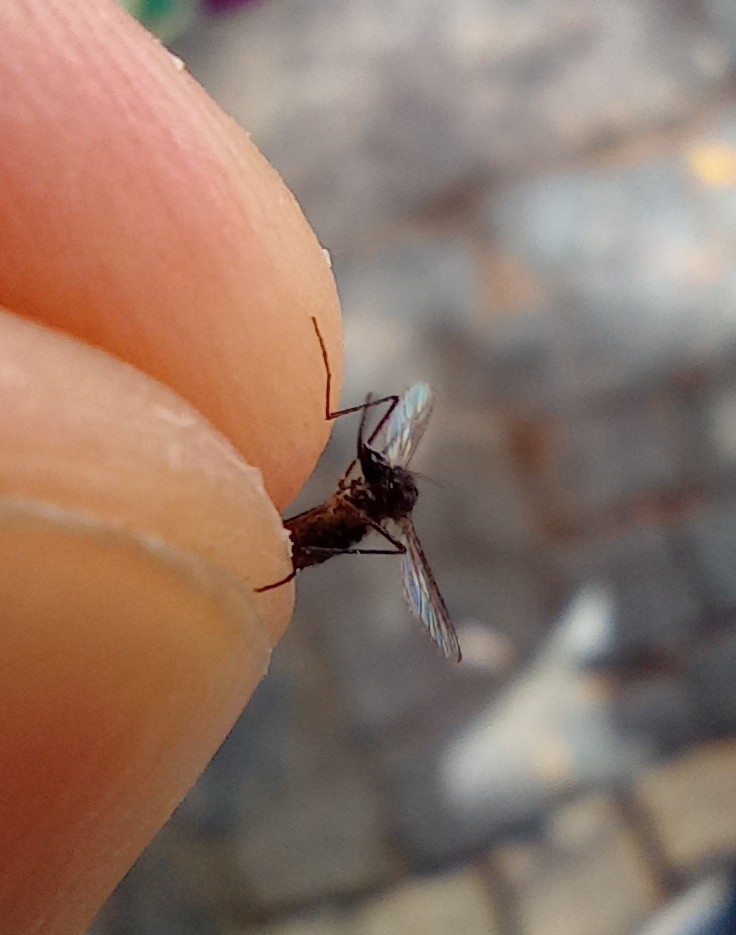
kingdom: Animalia
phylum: Arthropoda
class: Insecta
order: Diptera
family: Culicidae
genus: Aedes
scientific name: Aedes aegypti
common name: Yellow fever mosquito
